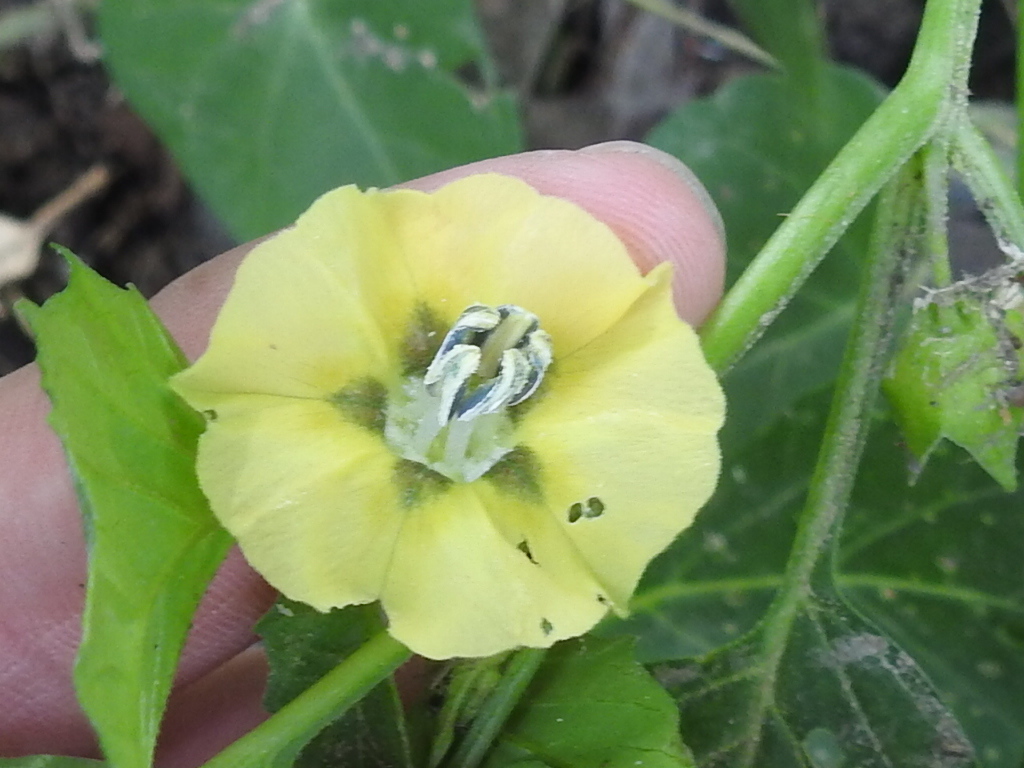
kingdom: Plantae
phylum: Tracheophyta
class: Magnoliopsida
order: Solanales
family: Solanaceae
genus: Physalis
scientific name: Physalis angulata
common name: Angular winter-cherry
